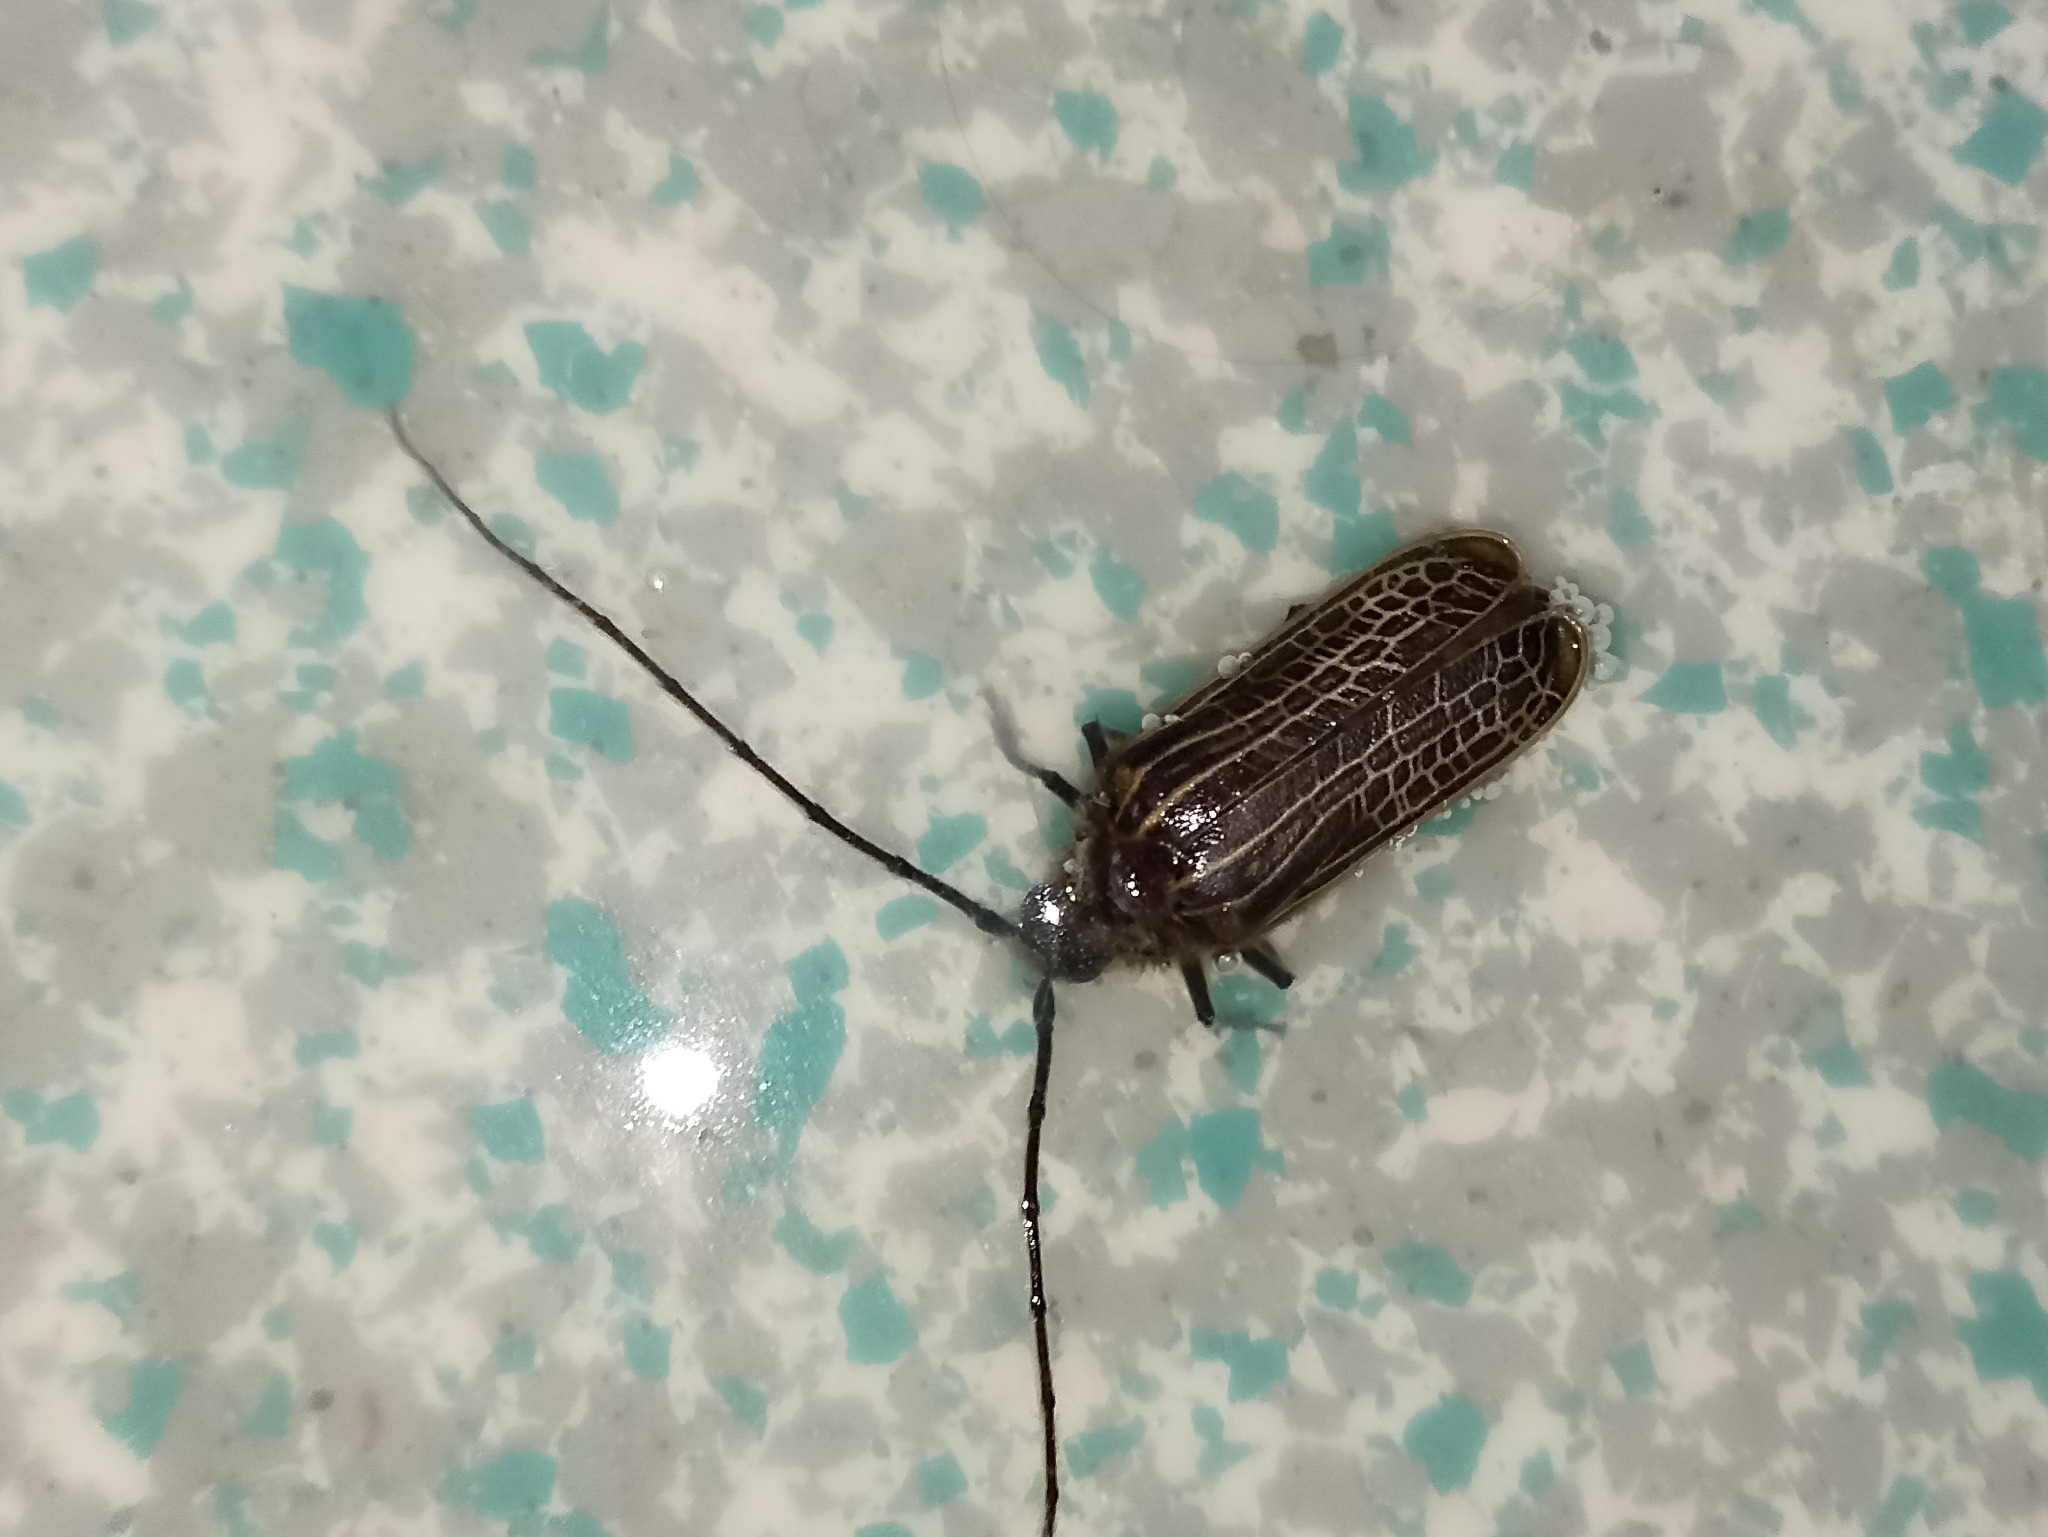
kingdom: Animalia
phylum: Arthropoda
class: Insecta
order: Coleoptera
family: Cerambycidae
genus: Prionoplus
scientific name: Prionoplus reticularis
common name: Huhu beetle
